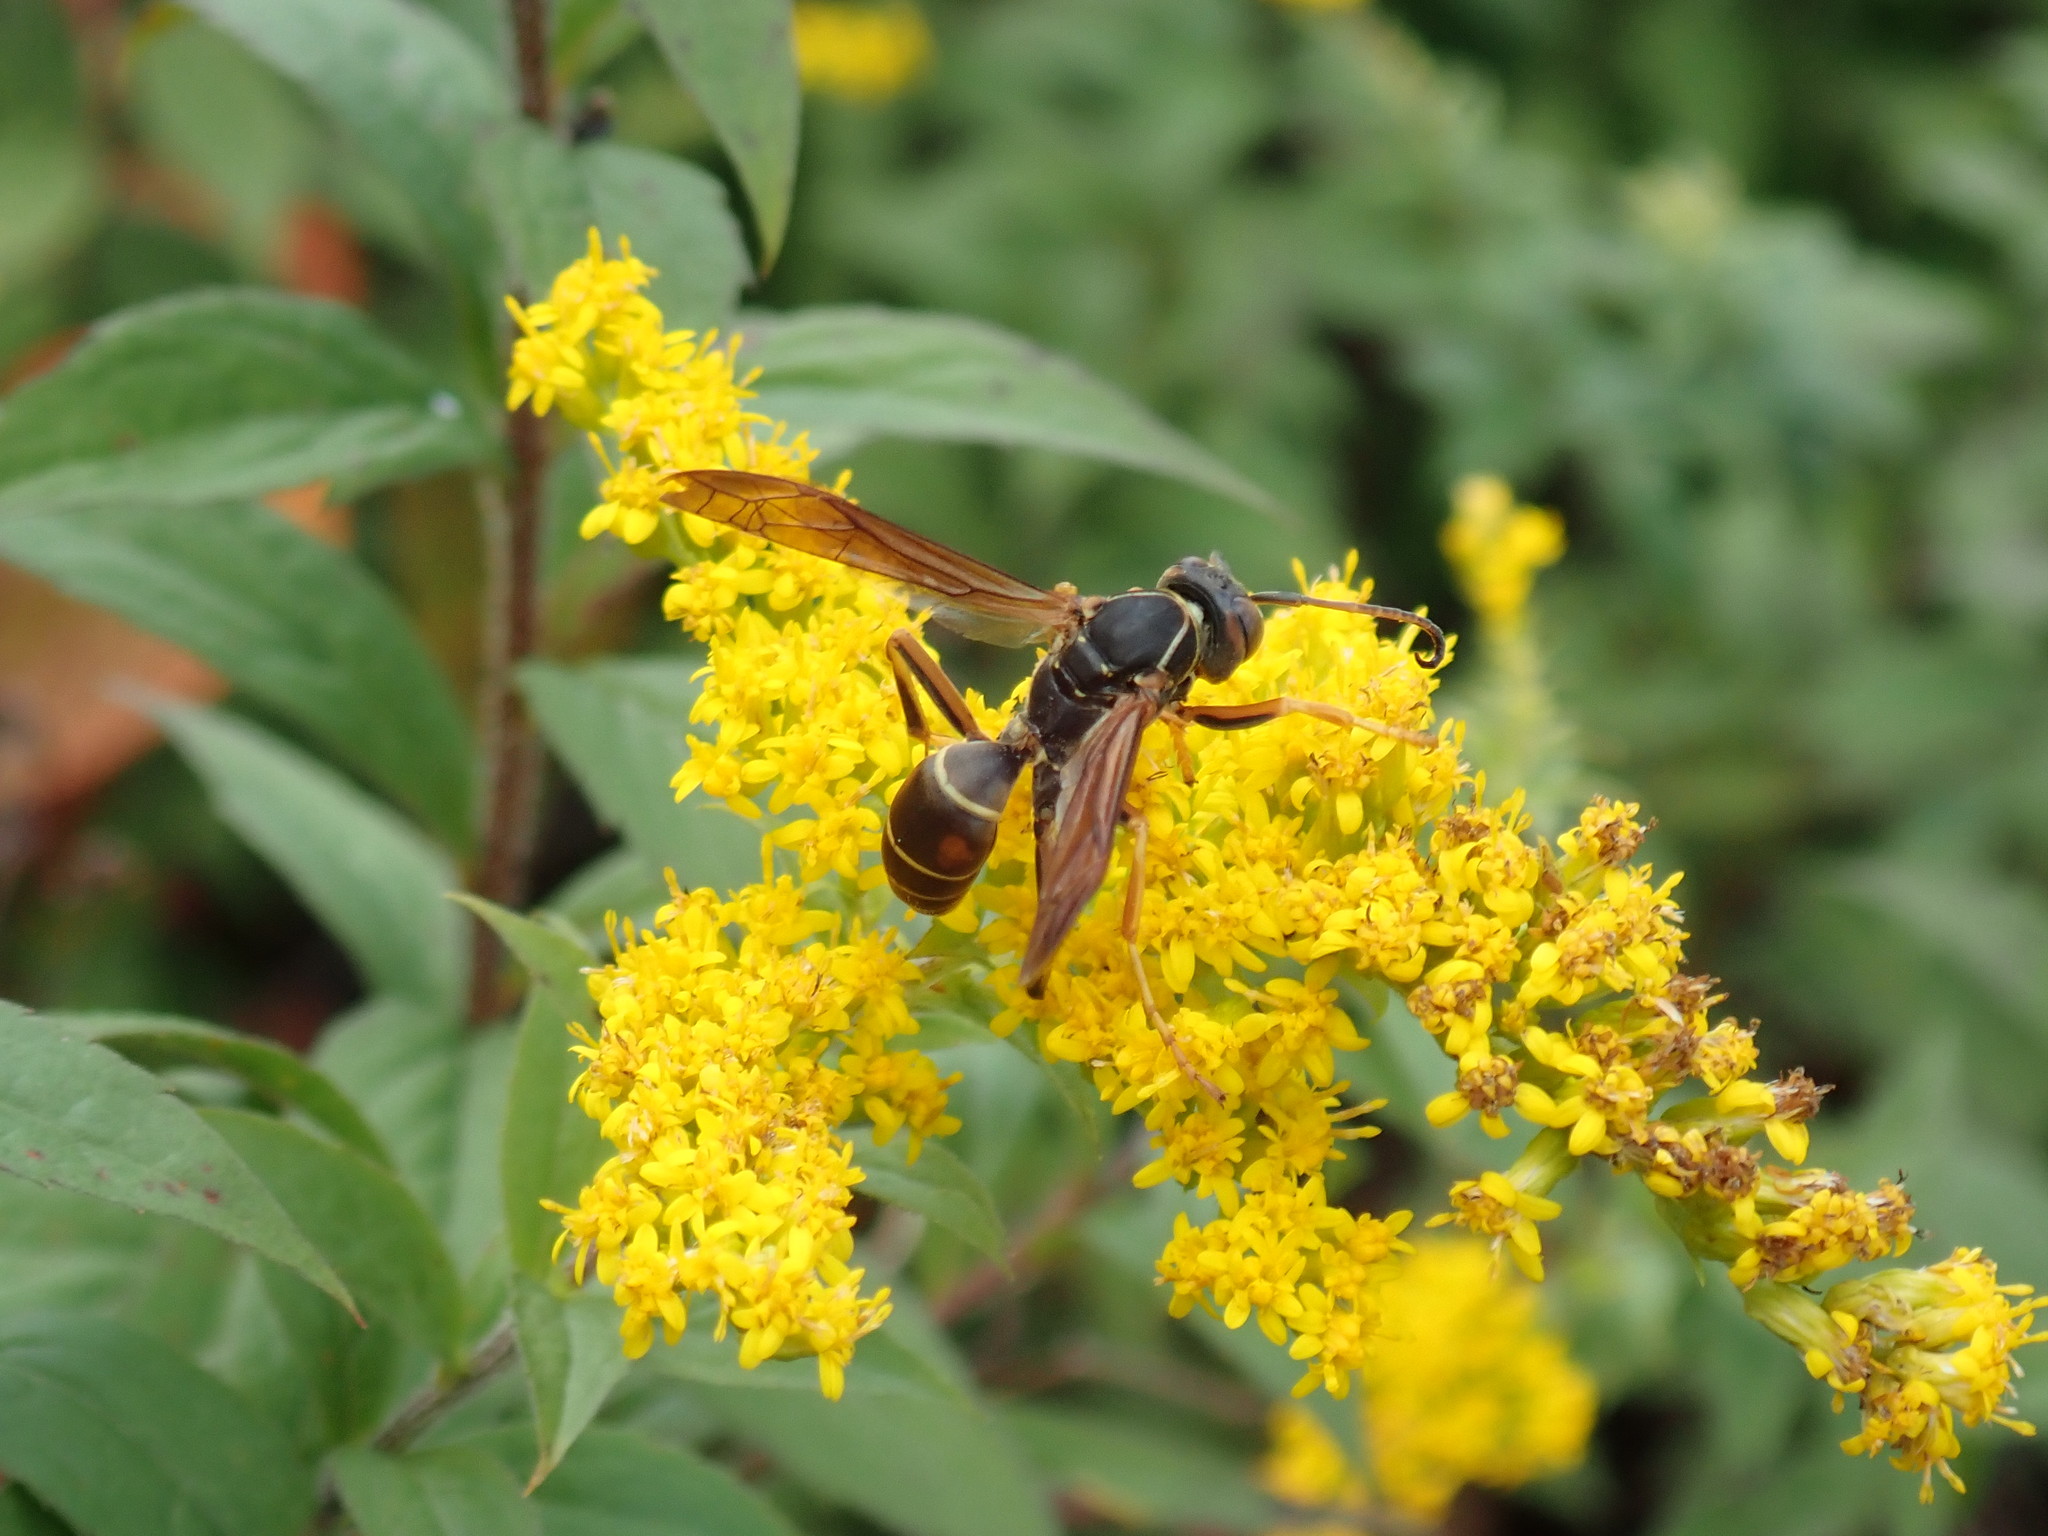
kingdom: Animalia
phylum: Arthropoda
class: Insecta
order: Hymenoptera
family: Eumenidae
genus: Polistes
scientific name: Polistes fuscatus
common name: Dark paper wasp
